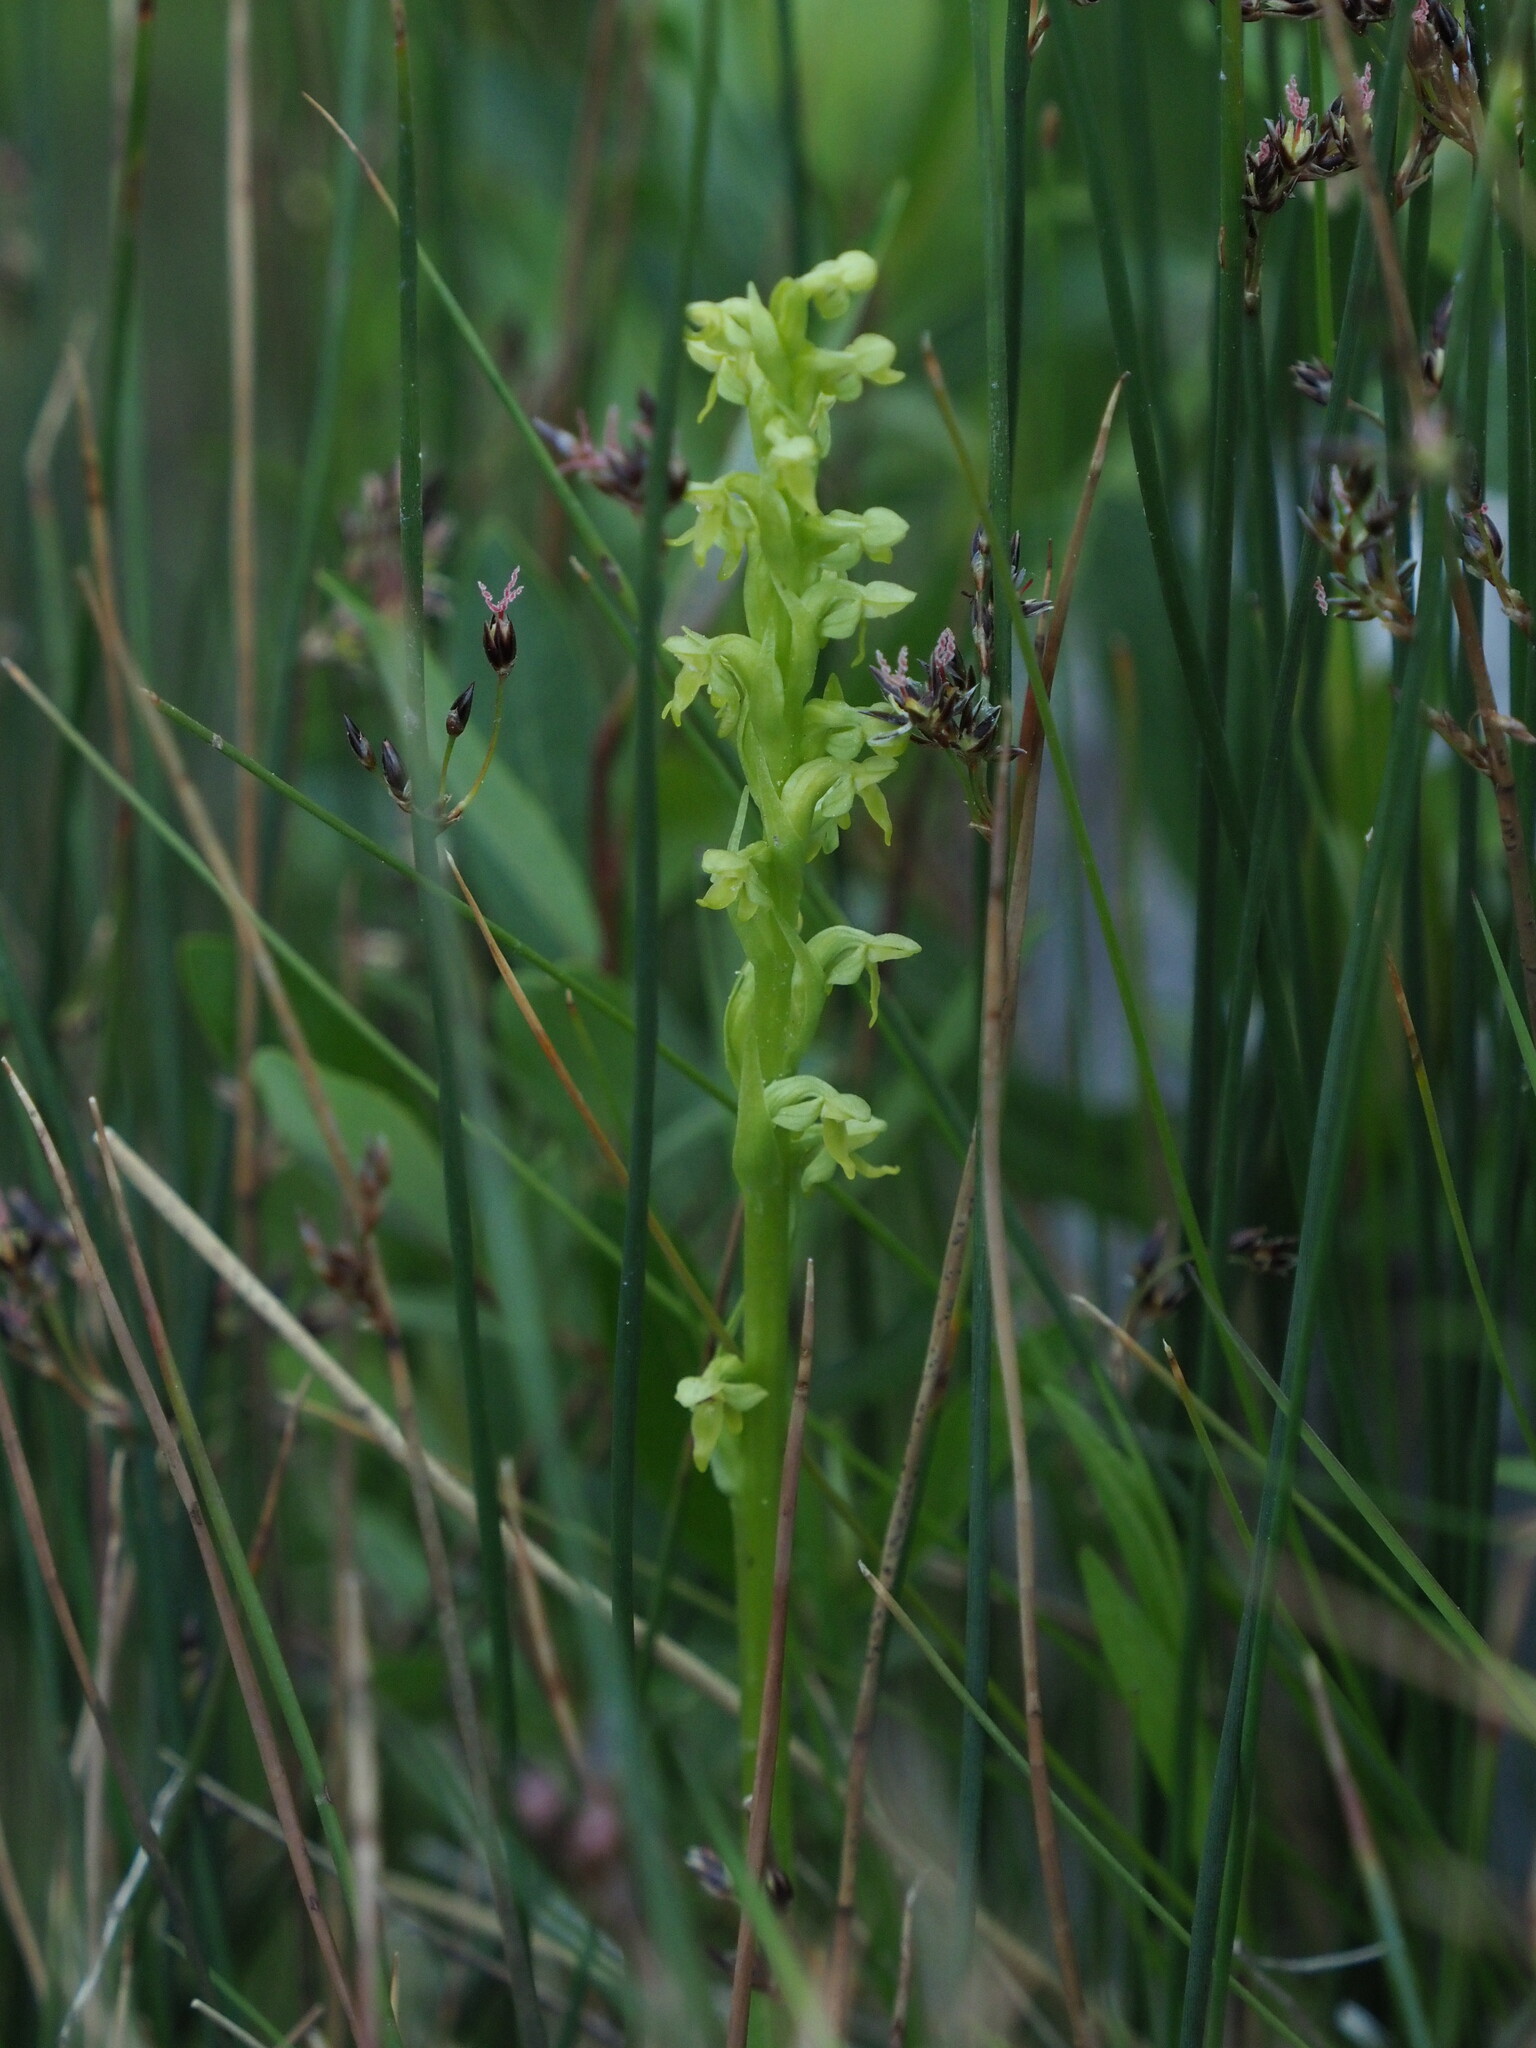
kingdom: Plantae
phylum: Tracheophyta
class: Liliopsida
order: Asparagales
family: Orchidaceae
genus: Platanthera
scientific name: Platanthera aquilonis
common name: Northern green orchid
